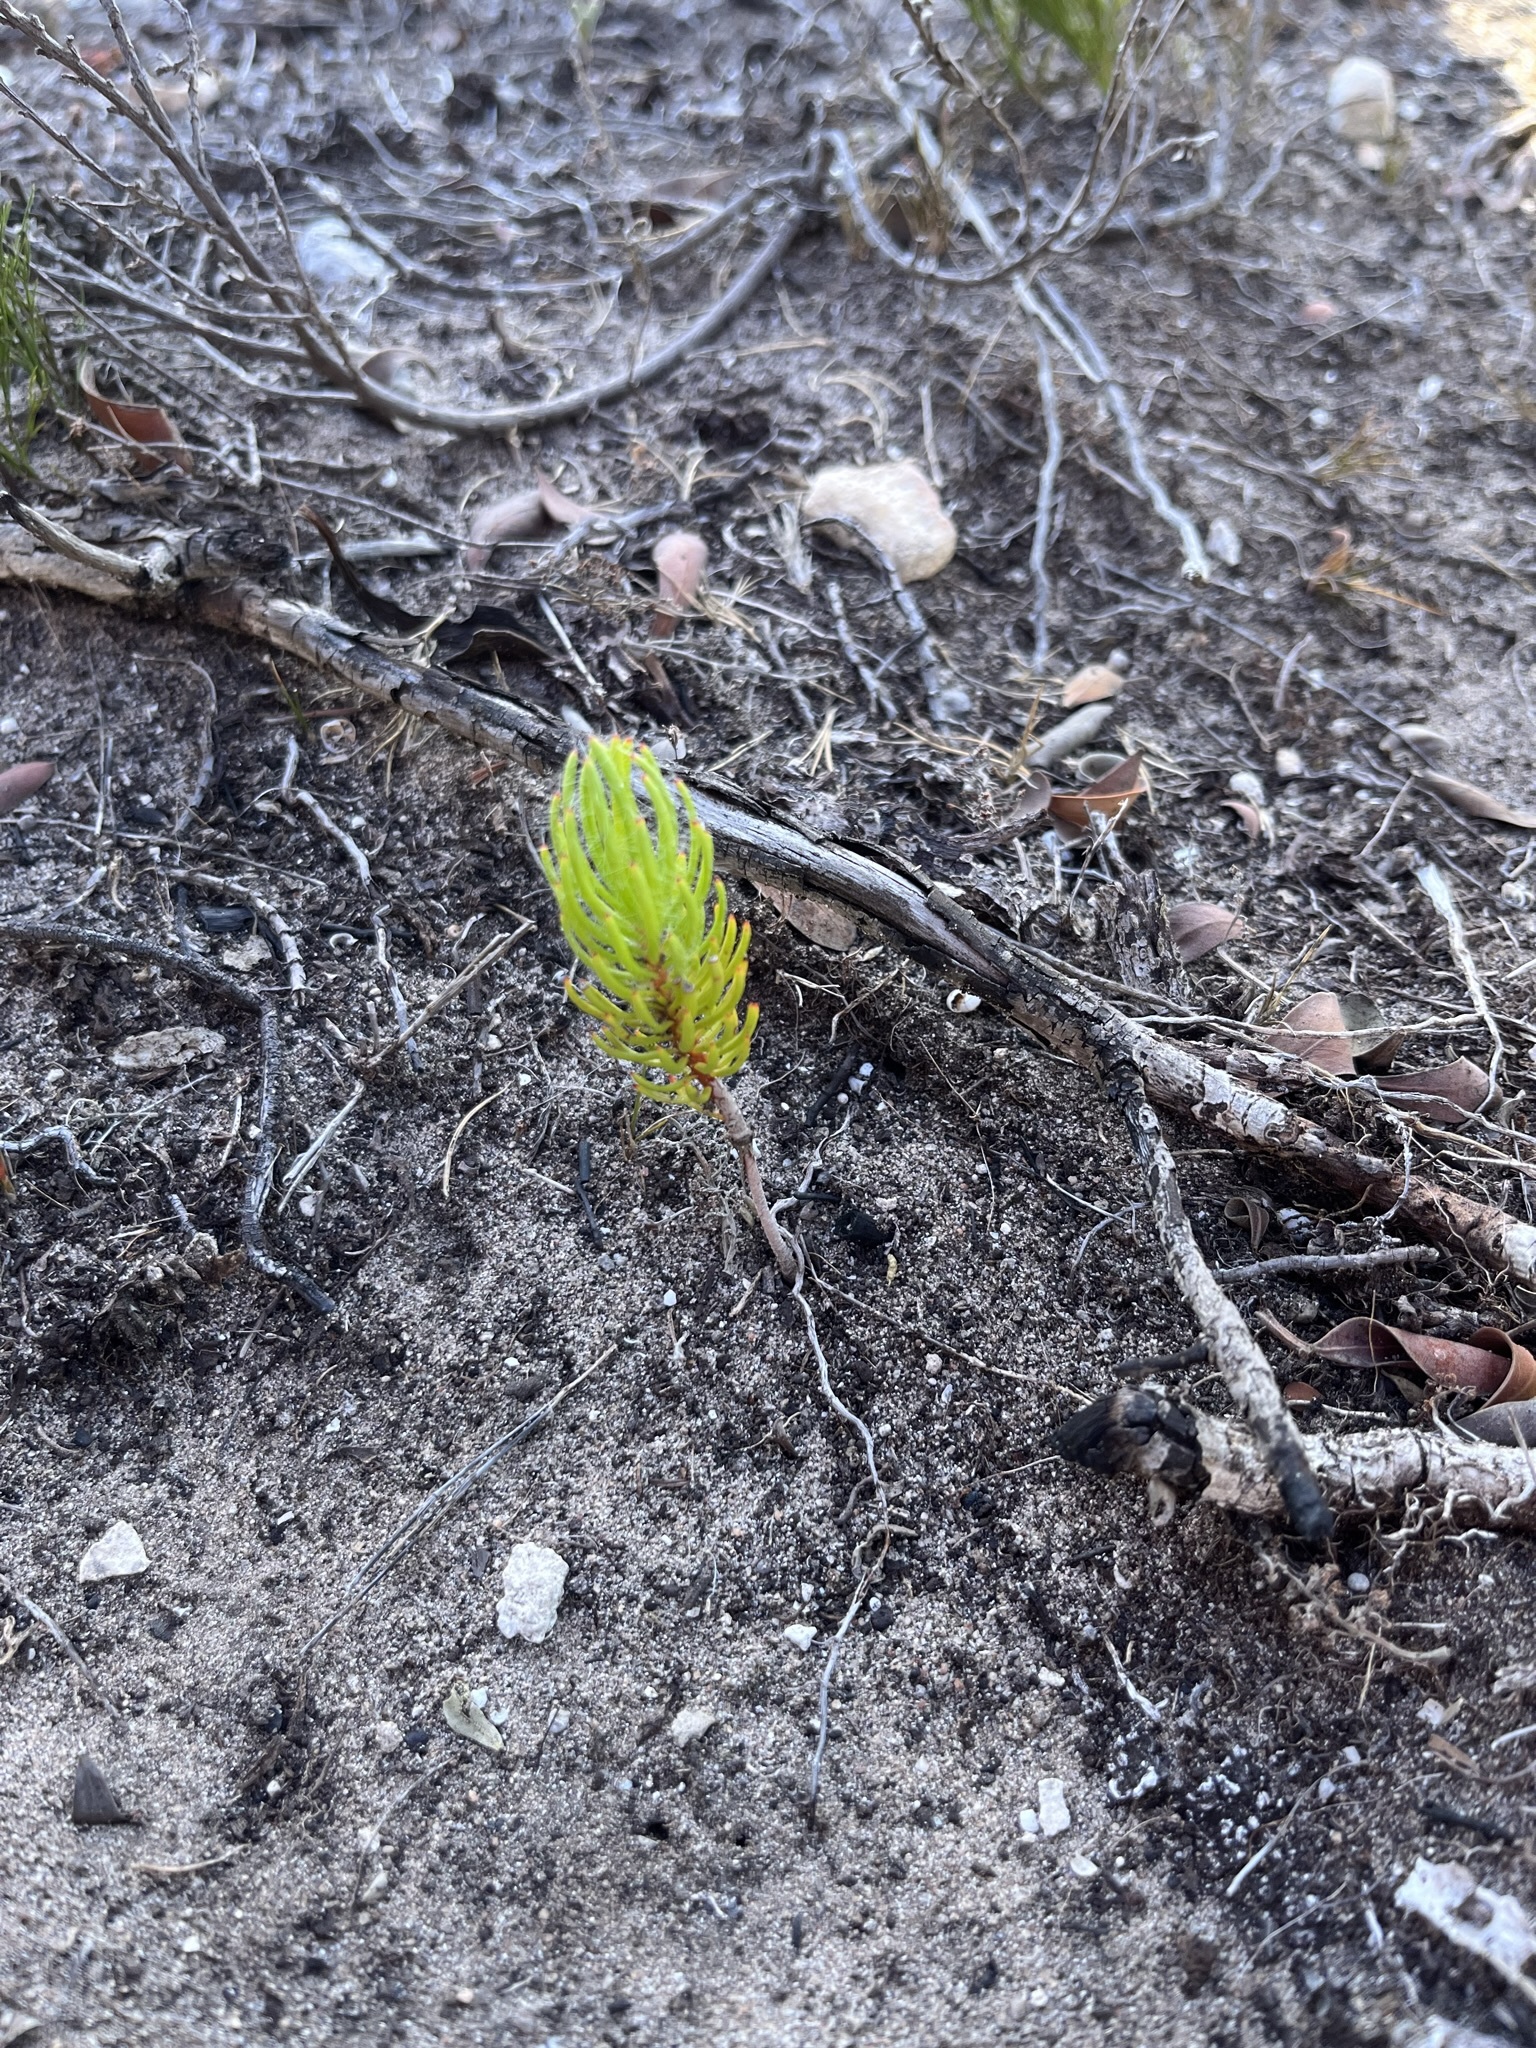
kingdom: Plantae
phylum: Tracheophyta
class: Magnoliopsida
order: Proteales
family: Proteaceae
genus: Leucadendron
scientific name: Leucadendron muirii
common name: Silver-ball conebush
